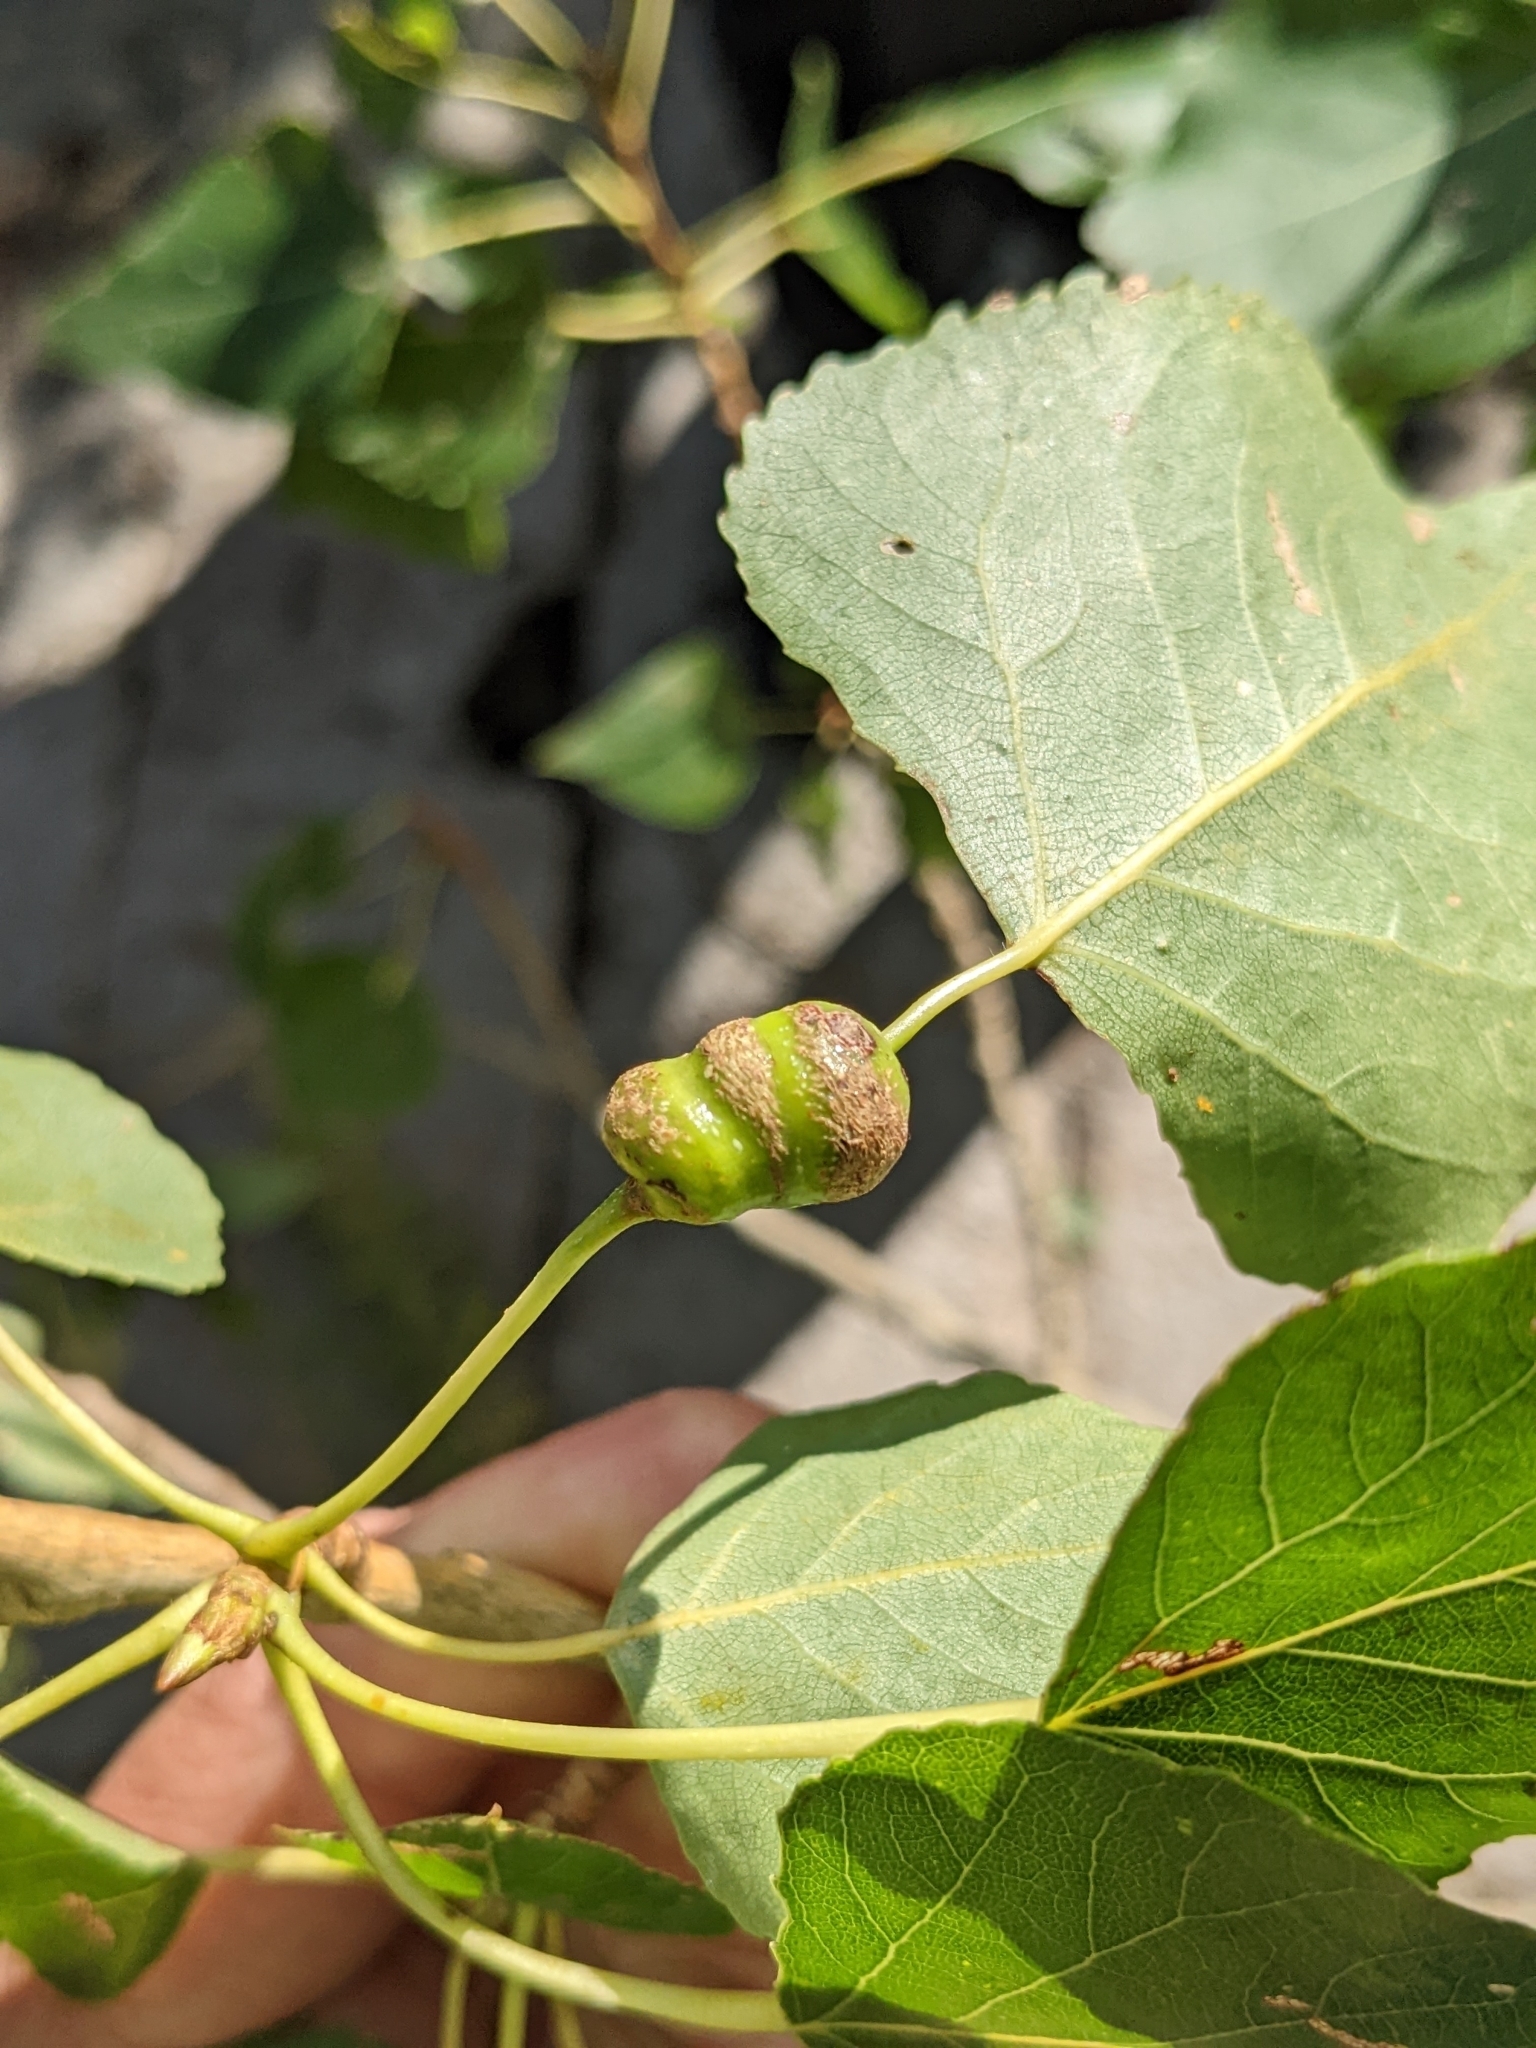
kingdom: Animalia
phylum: Arthropoda
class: Insecta
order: Hemiptera
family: Aphididae
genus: Pemphigus
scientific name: Pemphigus spyrothecae
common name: Aphid
